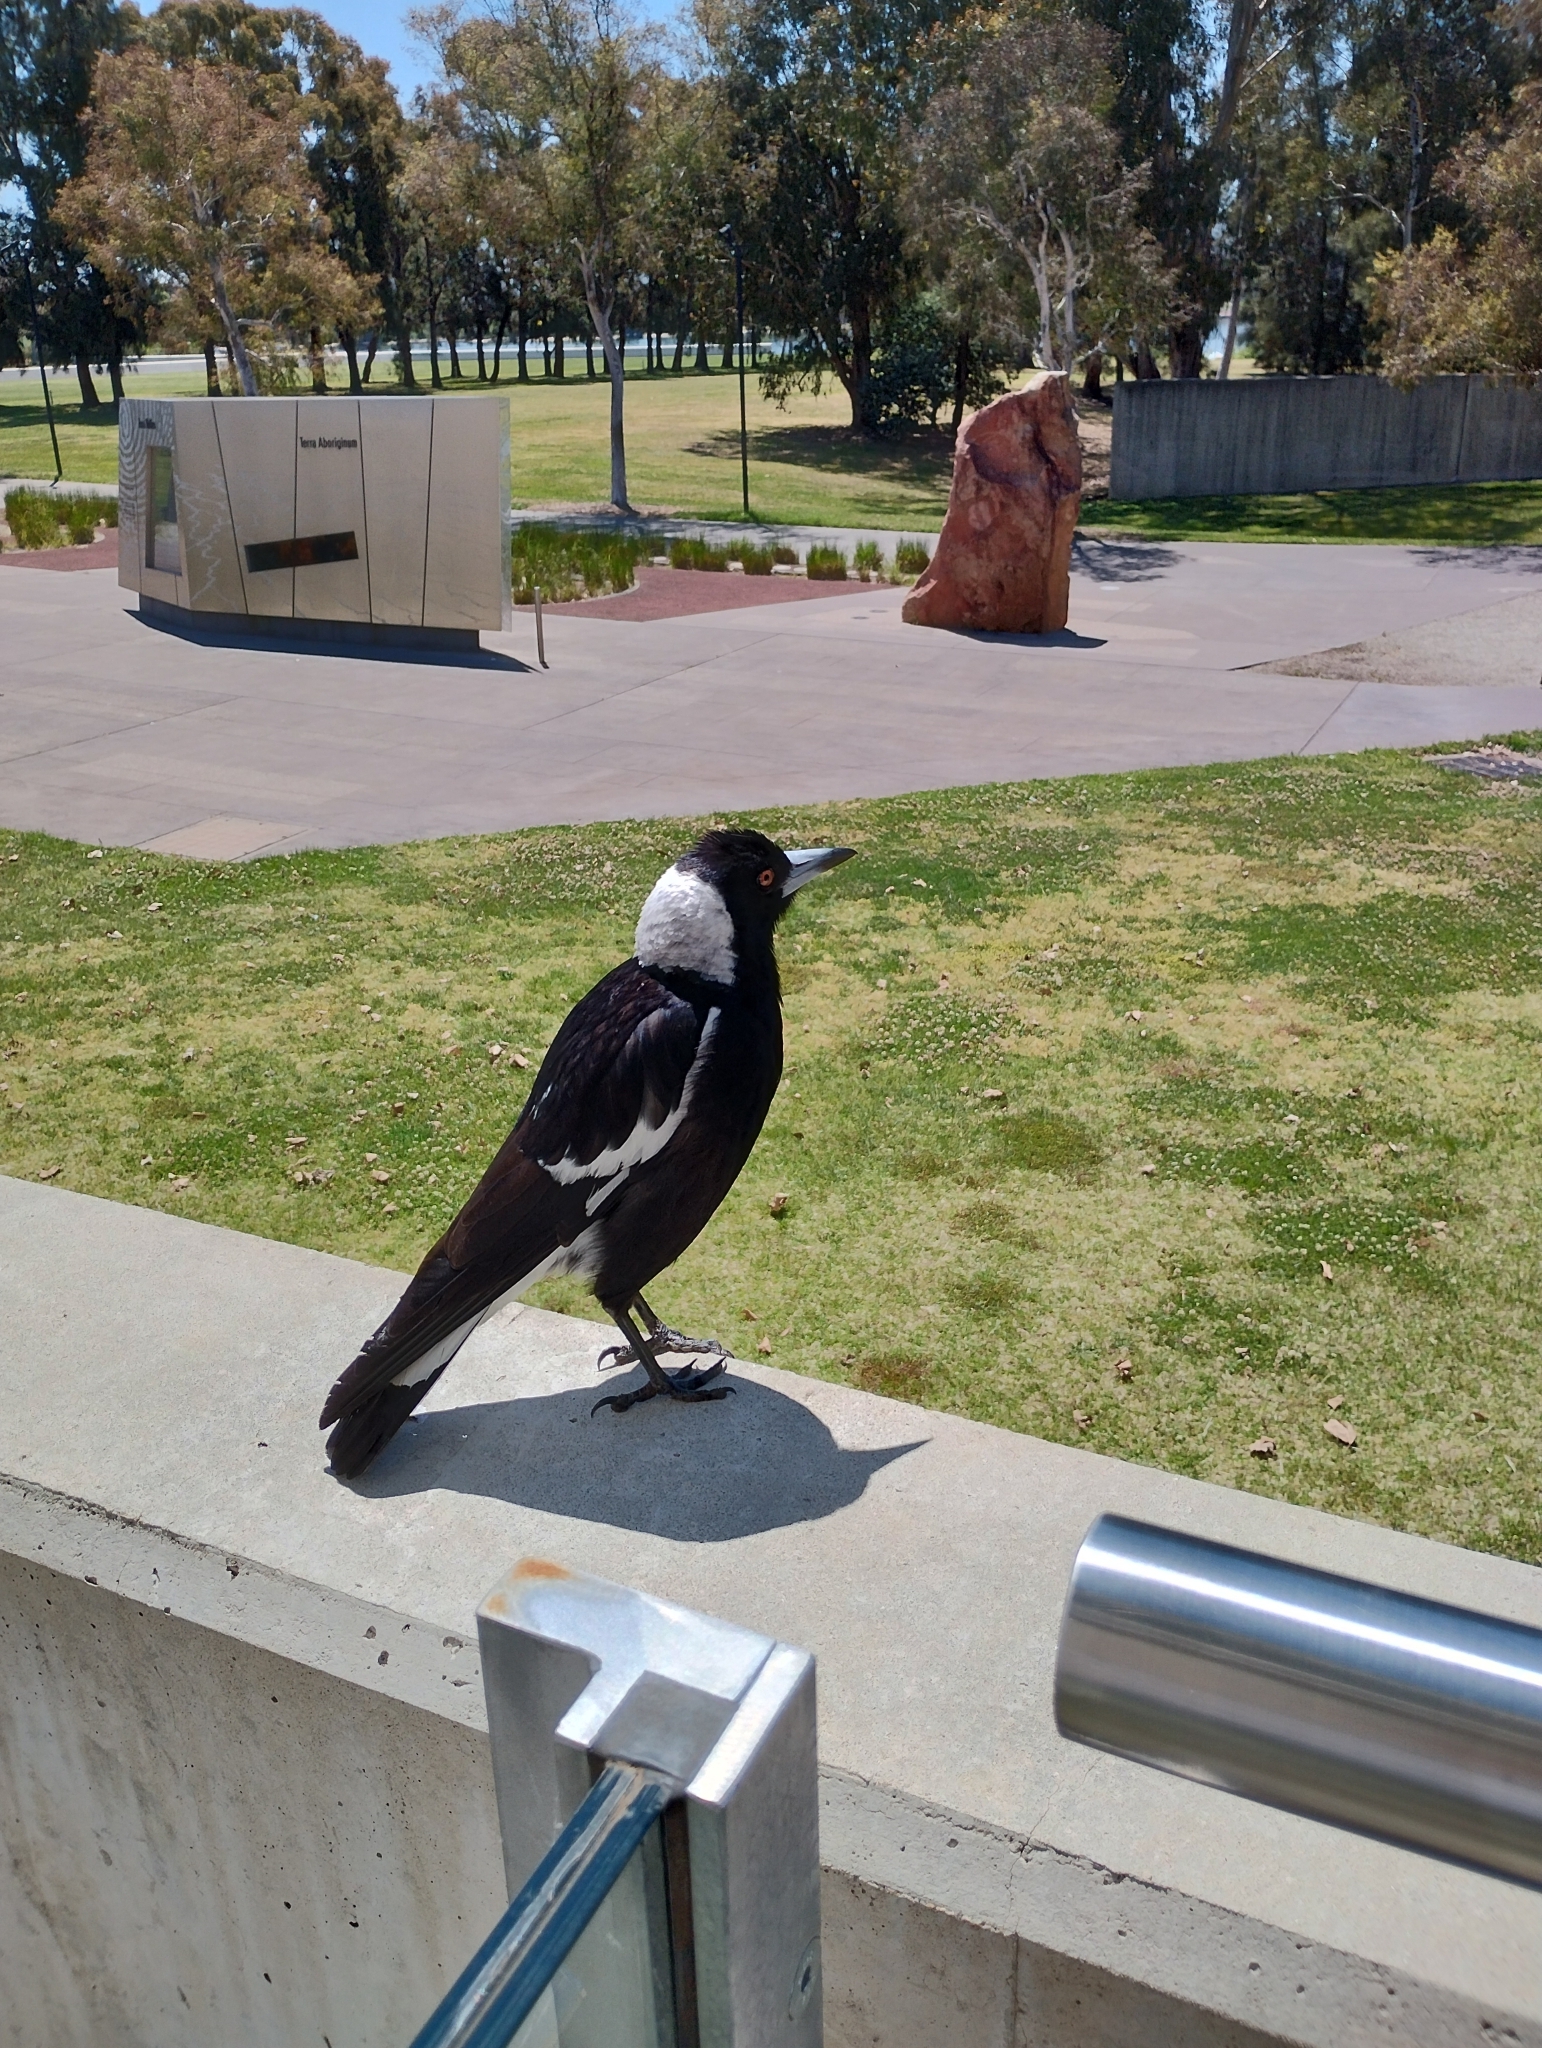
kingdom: Animalia
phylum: Chordata
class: Aves
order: Passeriformes
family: Cracticidae
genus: Gymnorhina
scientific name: Gymnorhina tibicen
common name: Australian magpie
